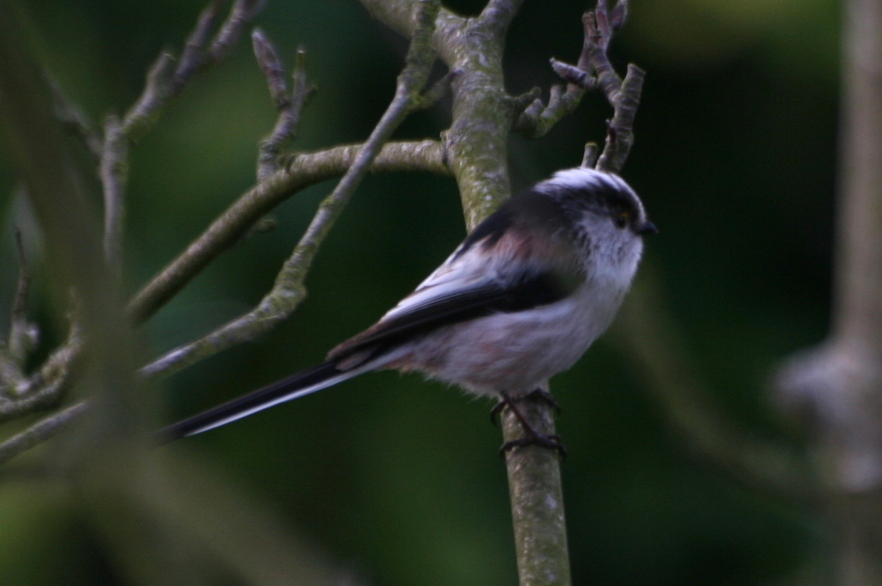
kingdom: Animalia
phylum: Chordata
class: Aves
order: Passeriformes
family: Aegithalidae
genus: Aegithalos
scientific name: Aegithalos caudatus
